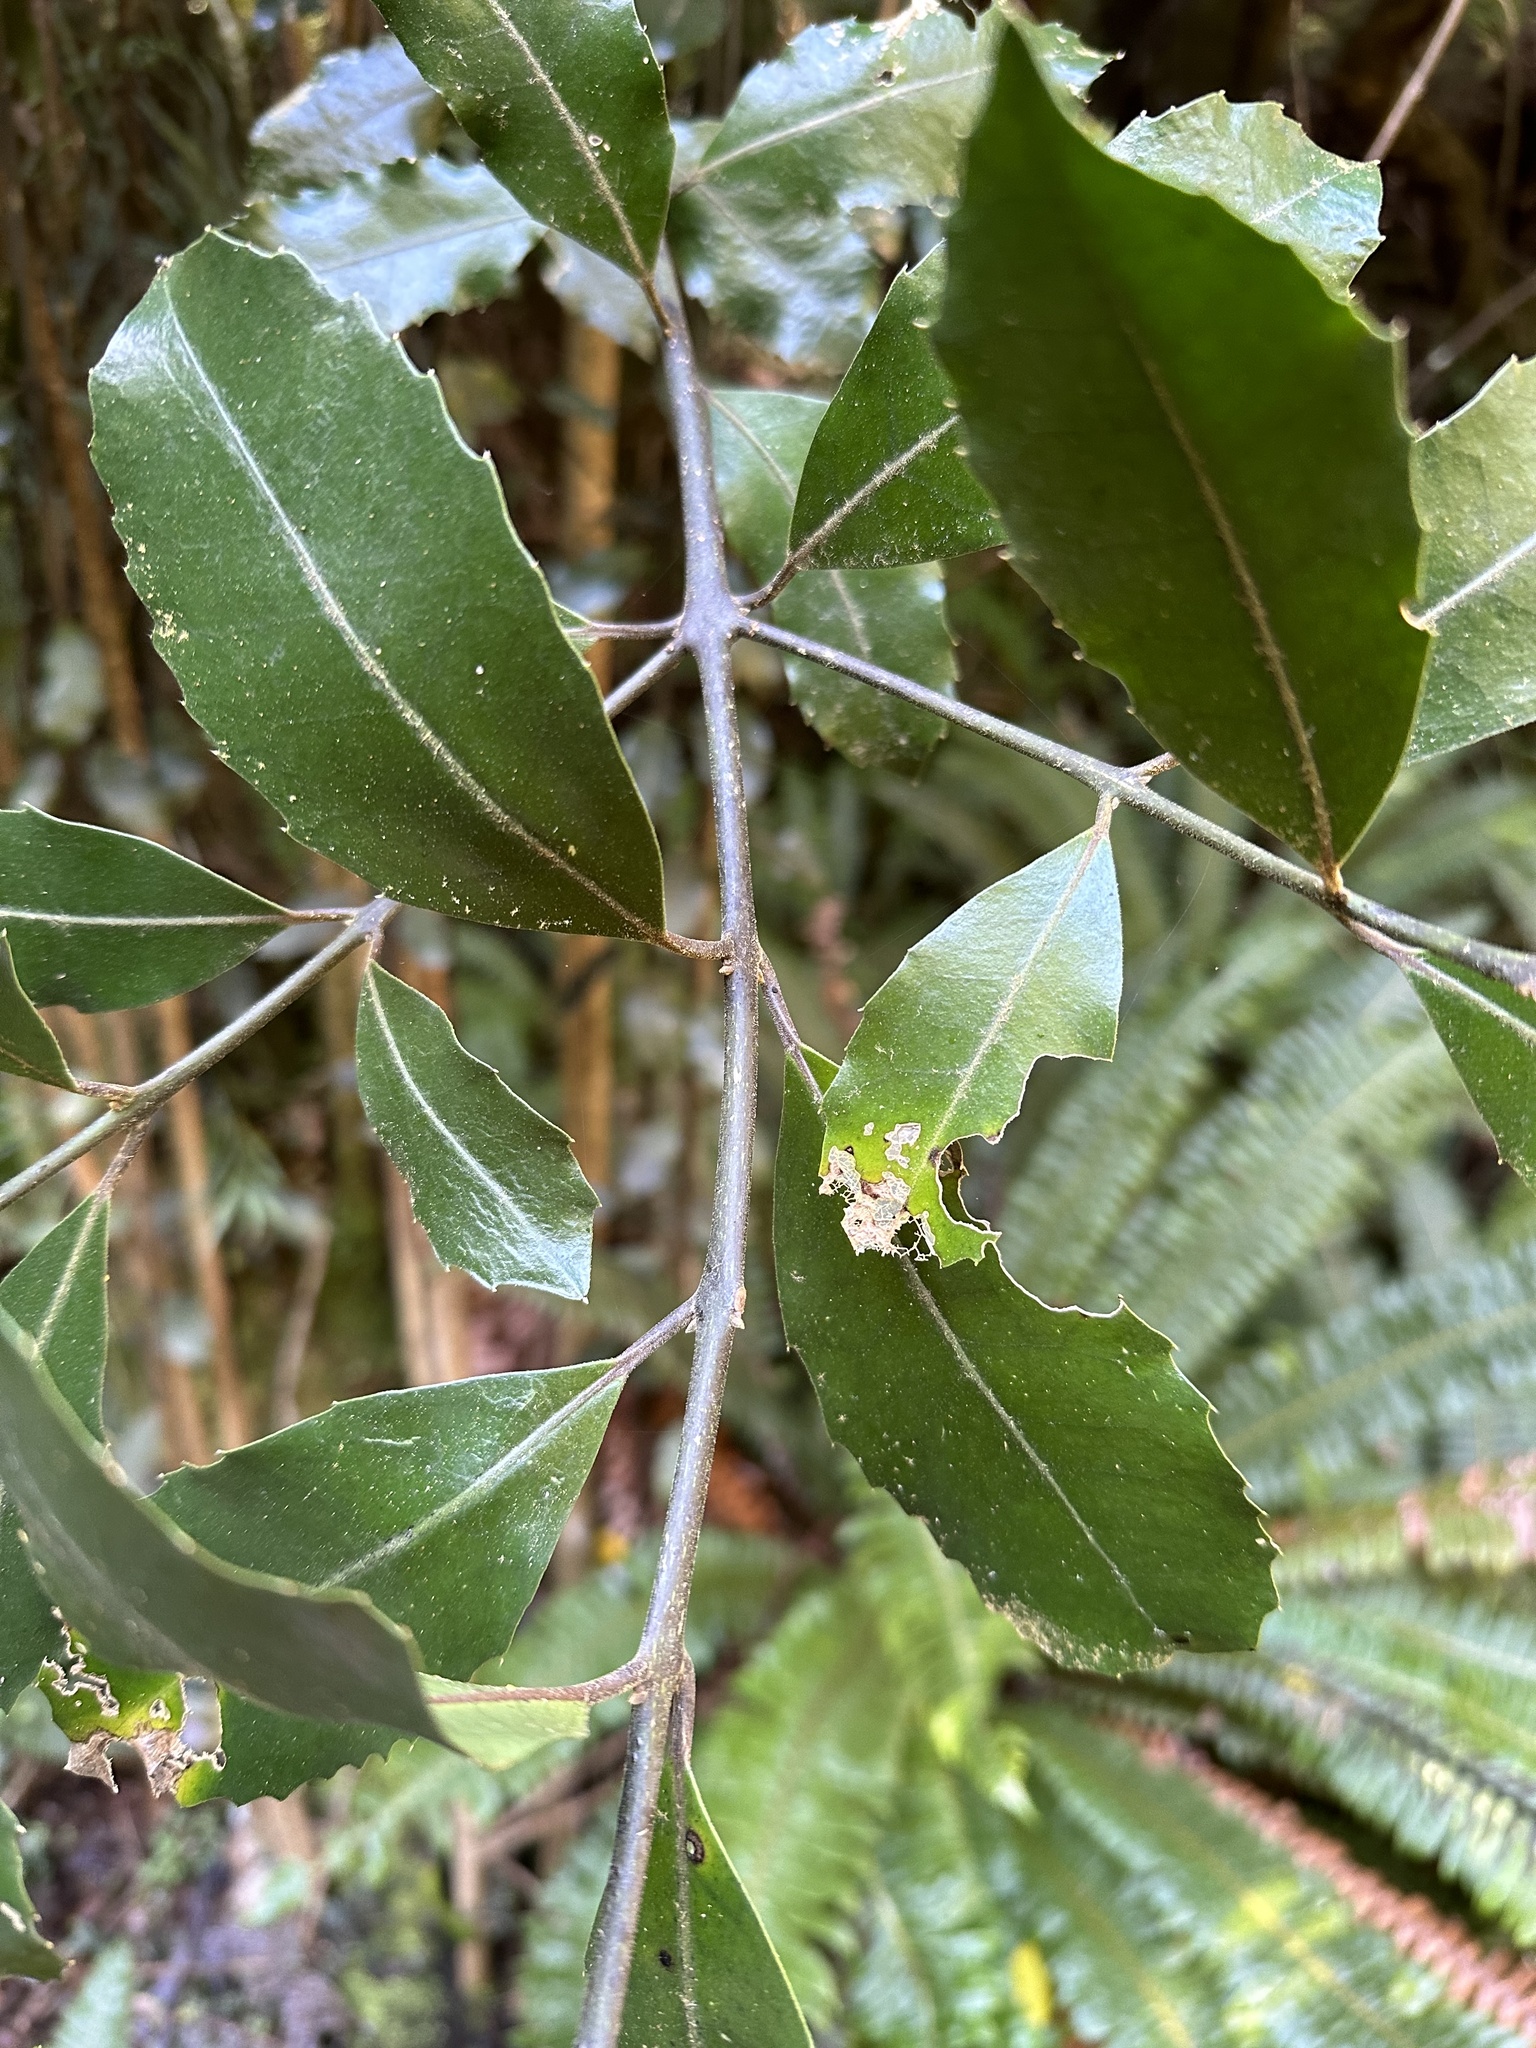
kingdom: Plantae
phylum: Tracheophyta
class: Magnoliopsida
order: Laurales
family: Monimiaceae
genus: Hedycarya
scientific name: Hedycarya arborea
